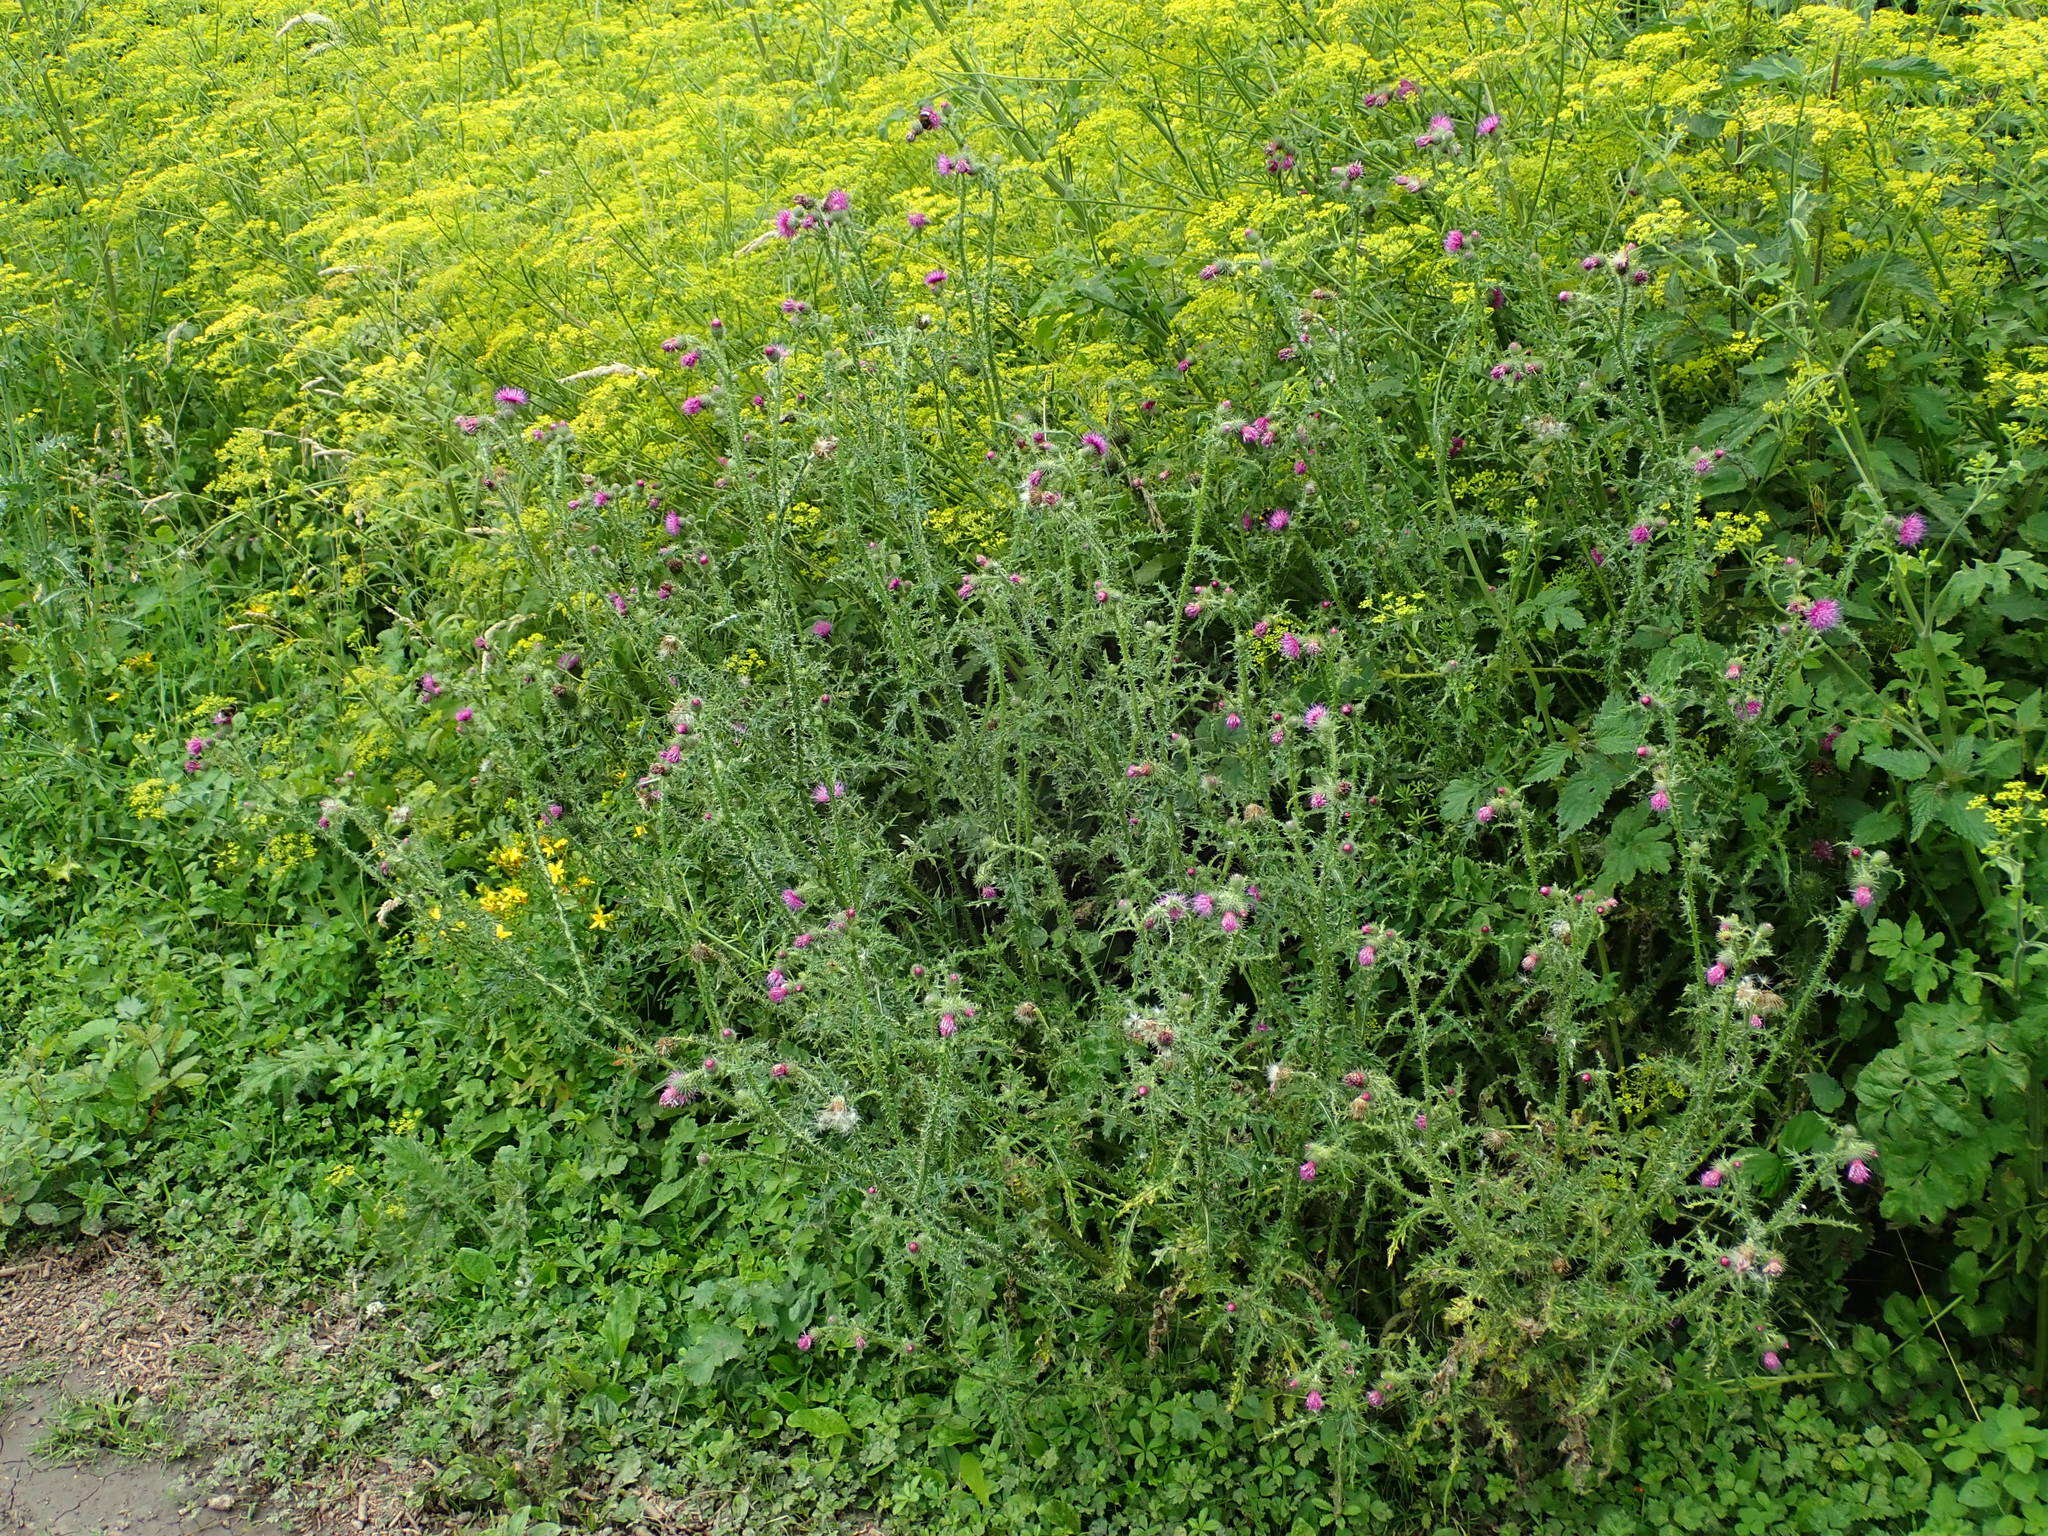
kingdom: Plantae
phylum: Tracheophyta
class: Magnoliopsida
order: Asterales
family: Asteraceae
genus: Carduus
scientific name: Carduus crispus
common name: Welted thistle
